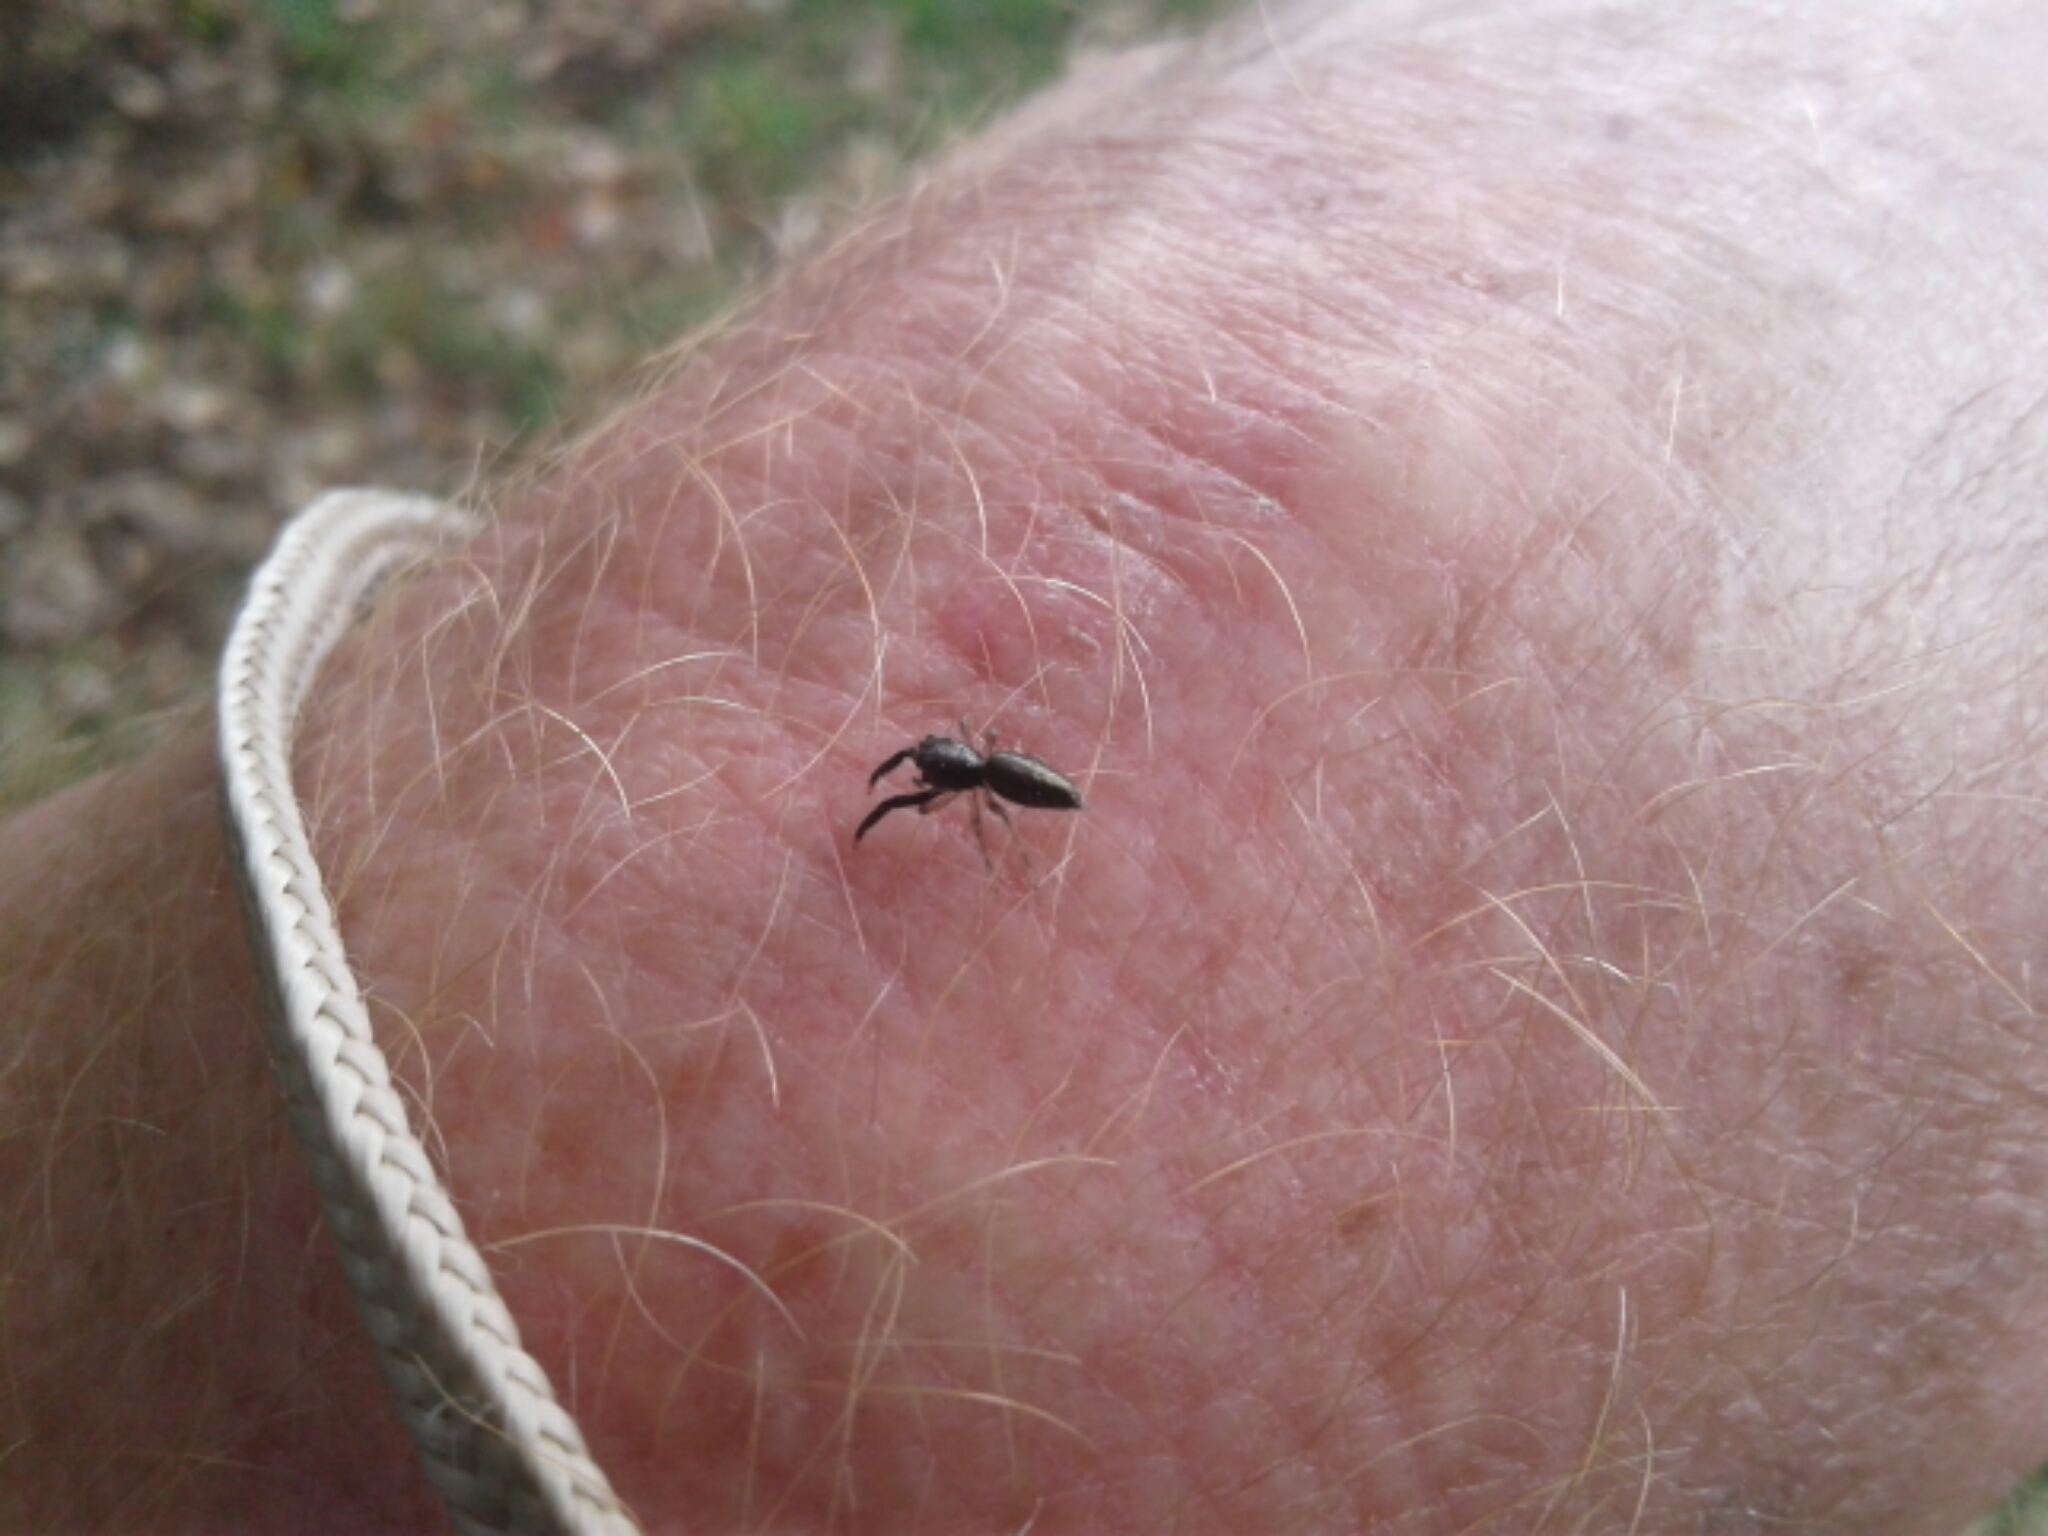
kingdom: Animalia
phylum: Arthropoda
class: Arachnida
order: Araneae
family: Salticidae
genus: Helpis
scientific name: Helpis minitabunda
